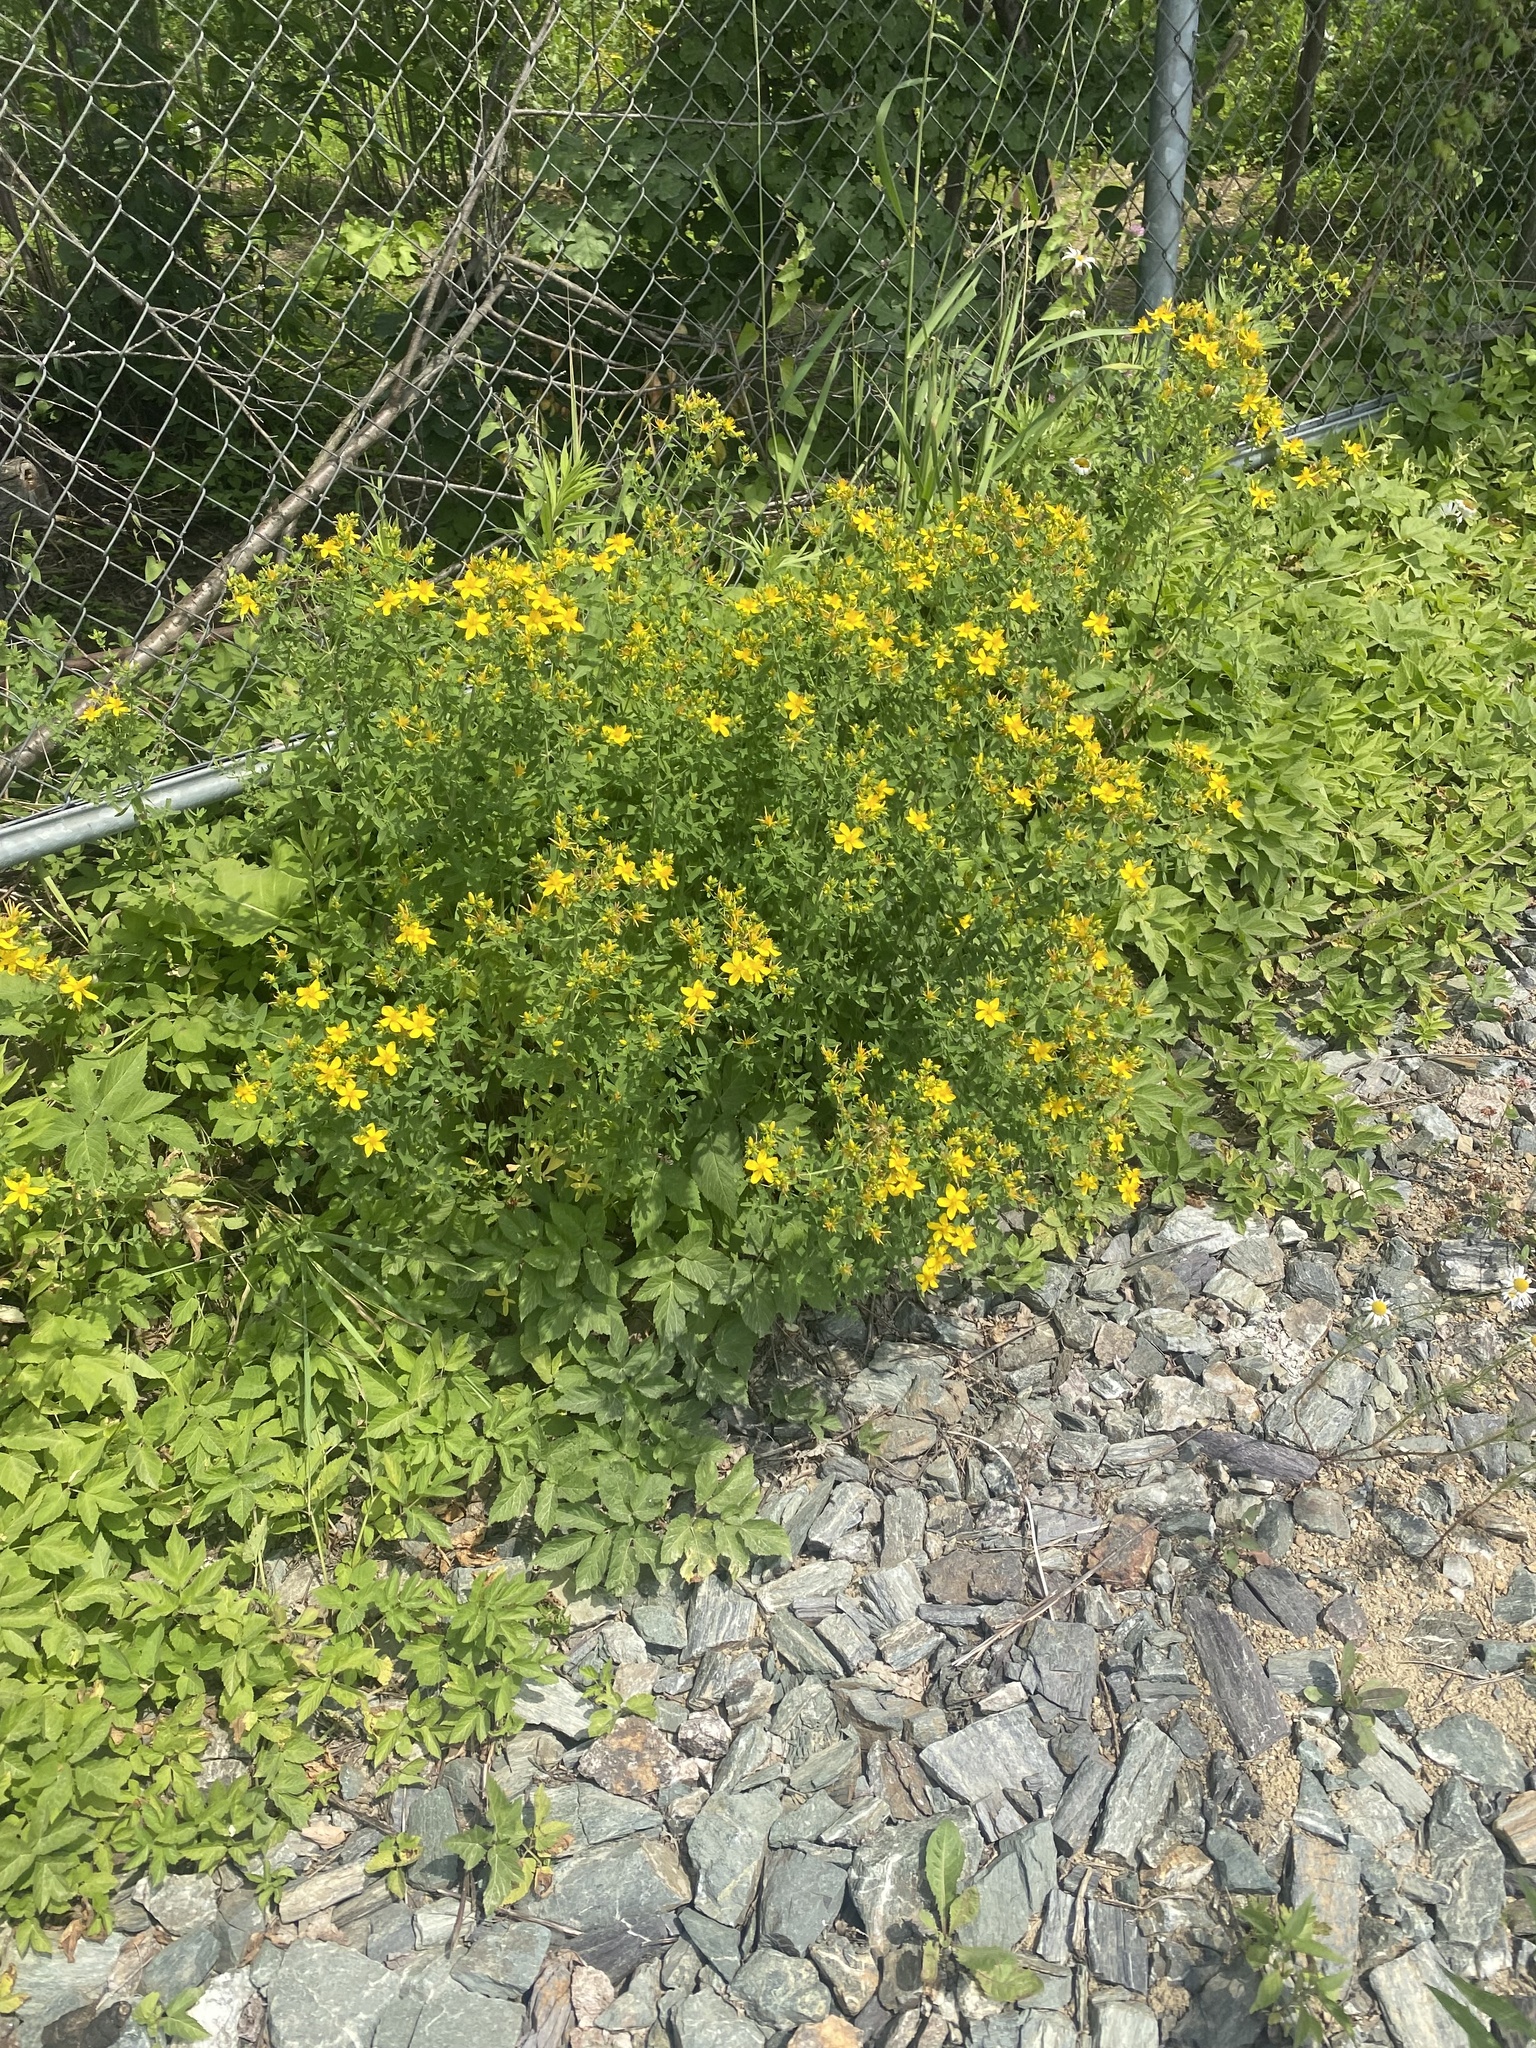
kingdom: Plantae
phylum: Tracheophyta
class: Magnoliopsida
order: Malpighiales
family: Hypericaceae
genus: Hypericum
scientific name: Hypericum perforatum
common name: Common st. johnswort
